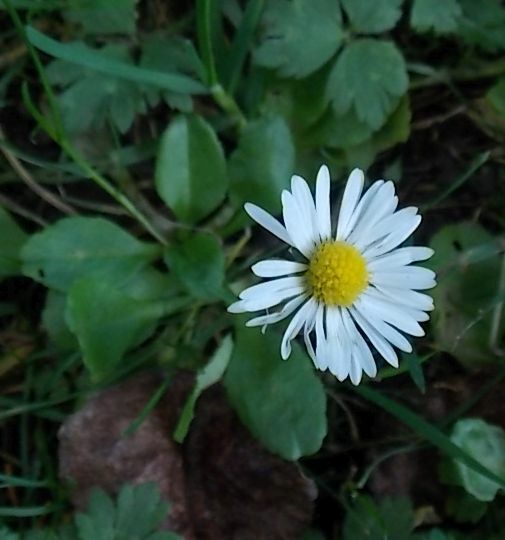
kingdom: Plantae
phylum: Tracheophyta
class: Magnoliopsida
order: Asterales
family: Asteraceae
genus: Bellis
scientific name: Bellis perennis
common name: Lawndaisy
